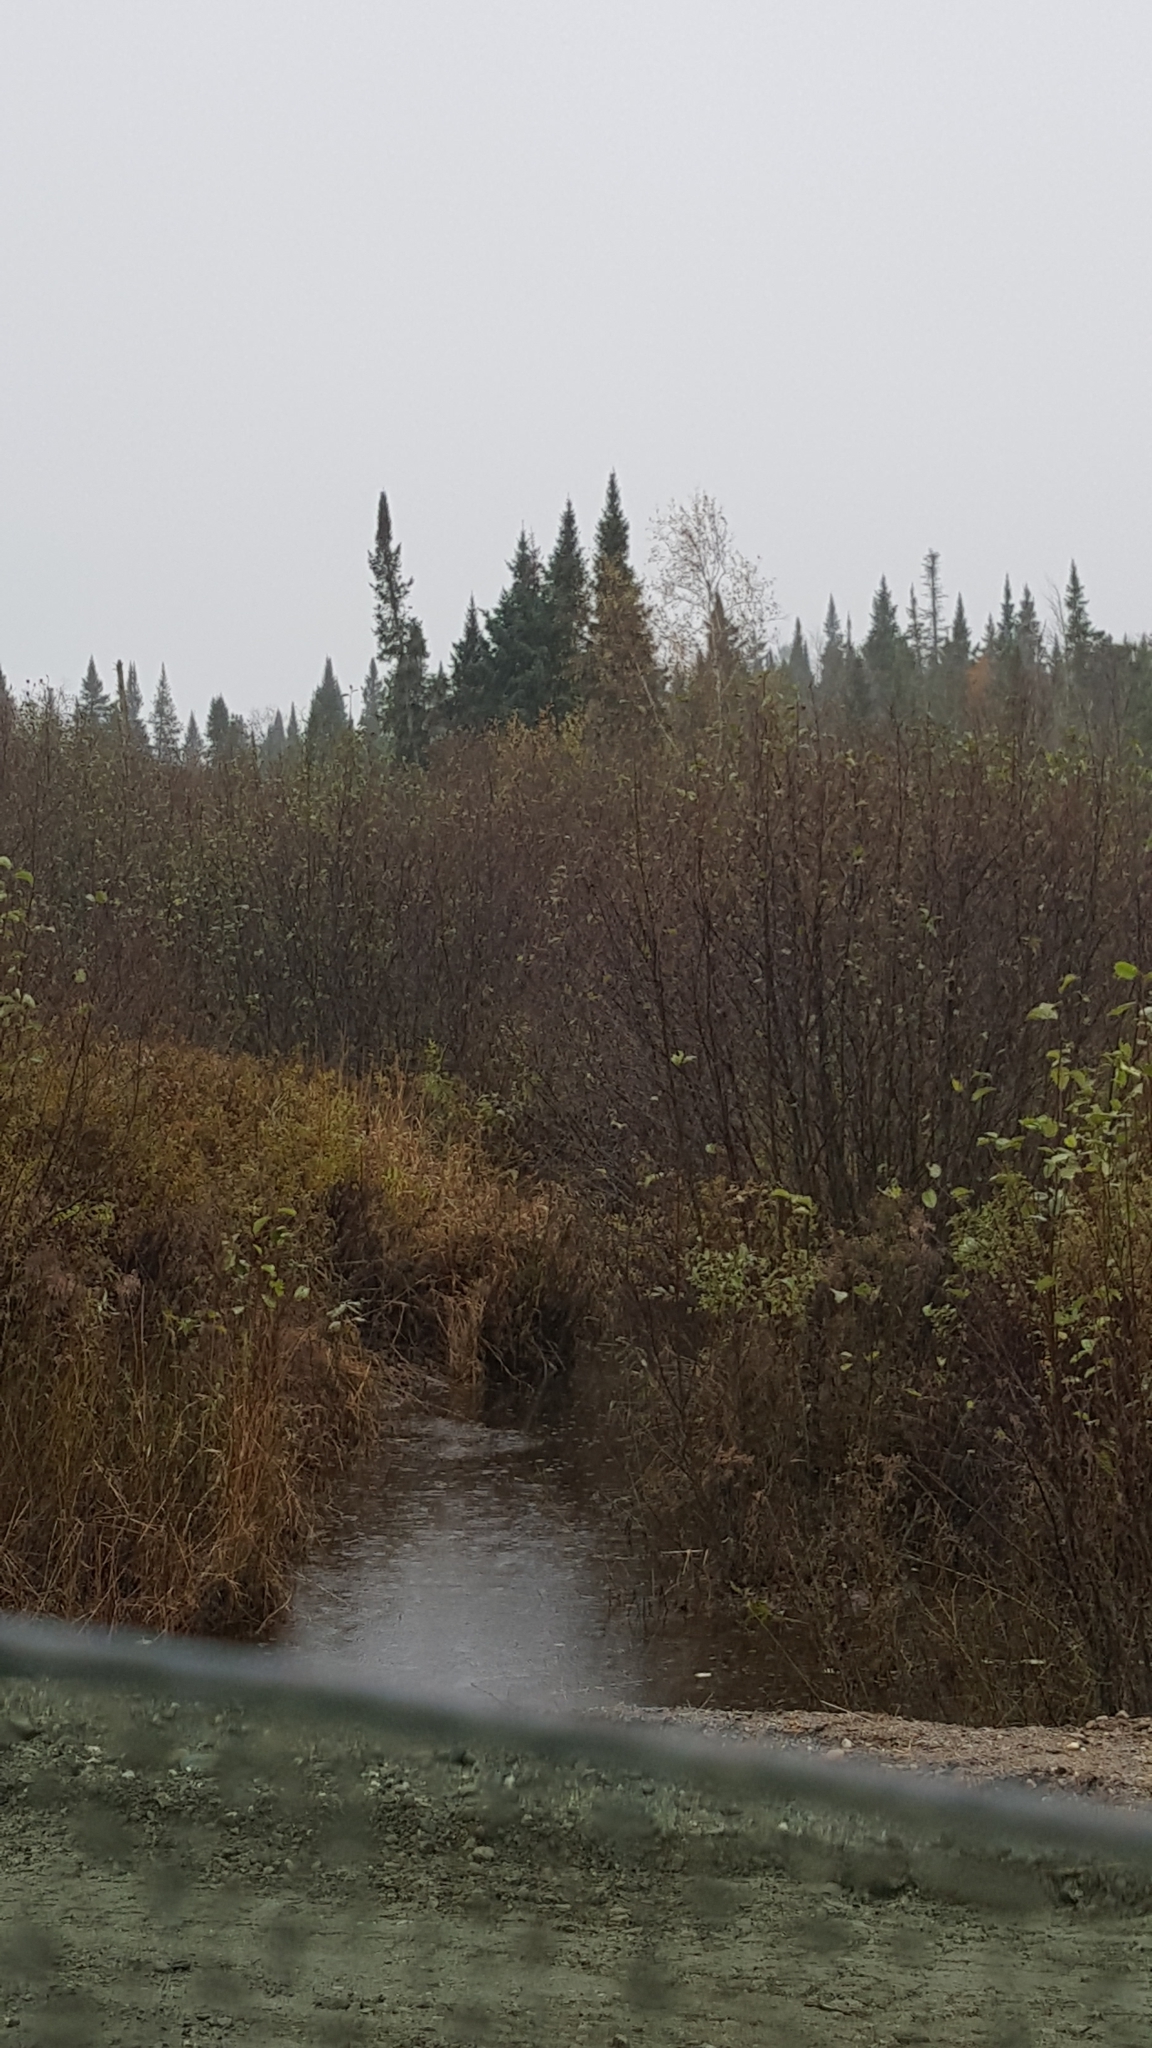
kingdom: Plantae
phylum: Tracheophyta
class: Pinopsida
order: Pinales
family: Pinaceae
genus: Abies
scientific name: Abies balsamea
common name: Balsam fir
